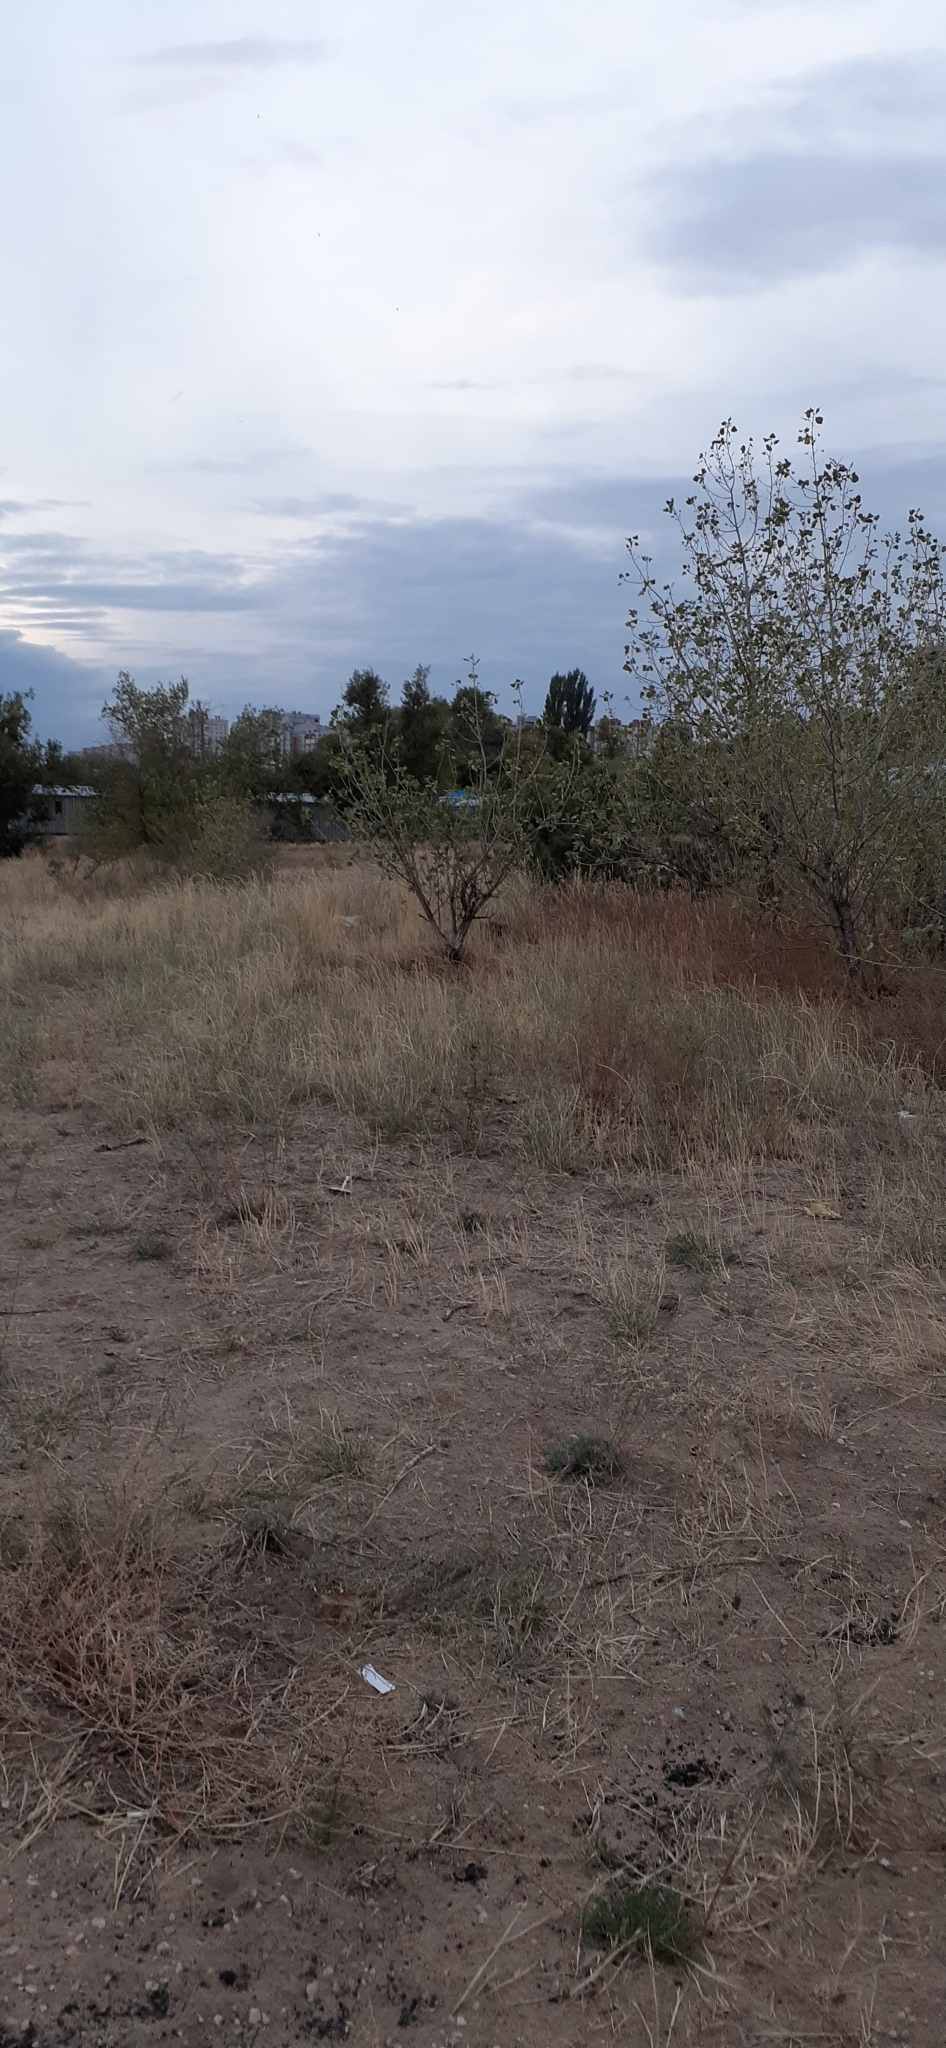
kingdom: Plantae
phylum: Tracheophyta
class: Liliopsida
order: Poales
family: Poaceae
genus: Sporobolus
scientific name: Sporobolus cryptandrus
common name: Sand dropseed
